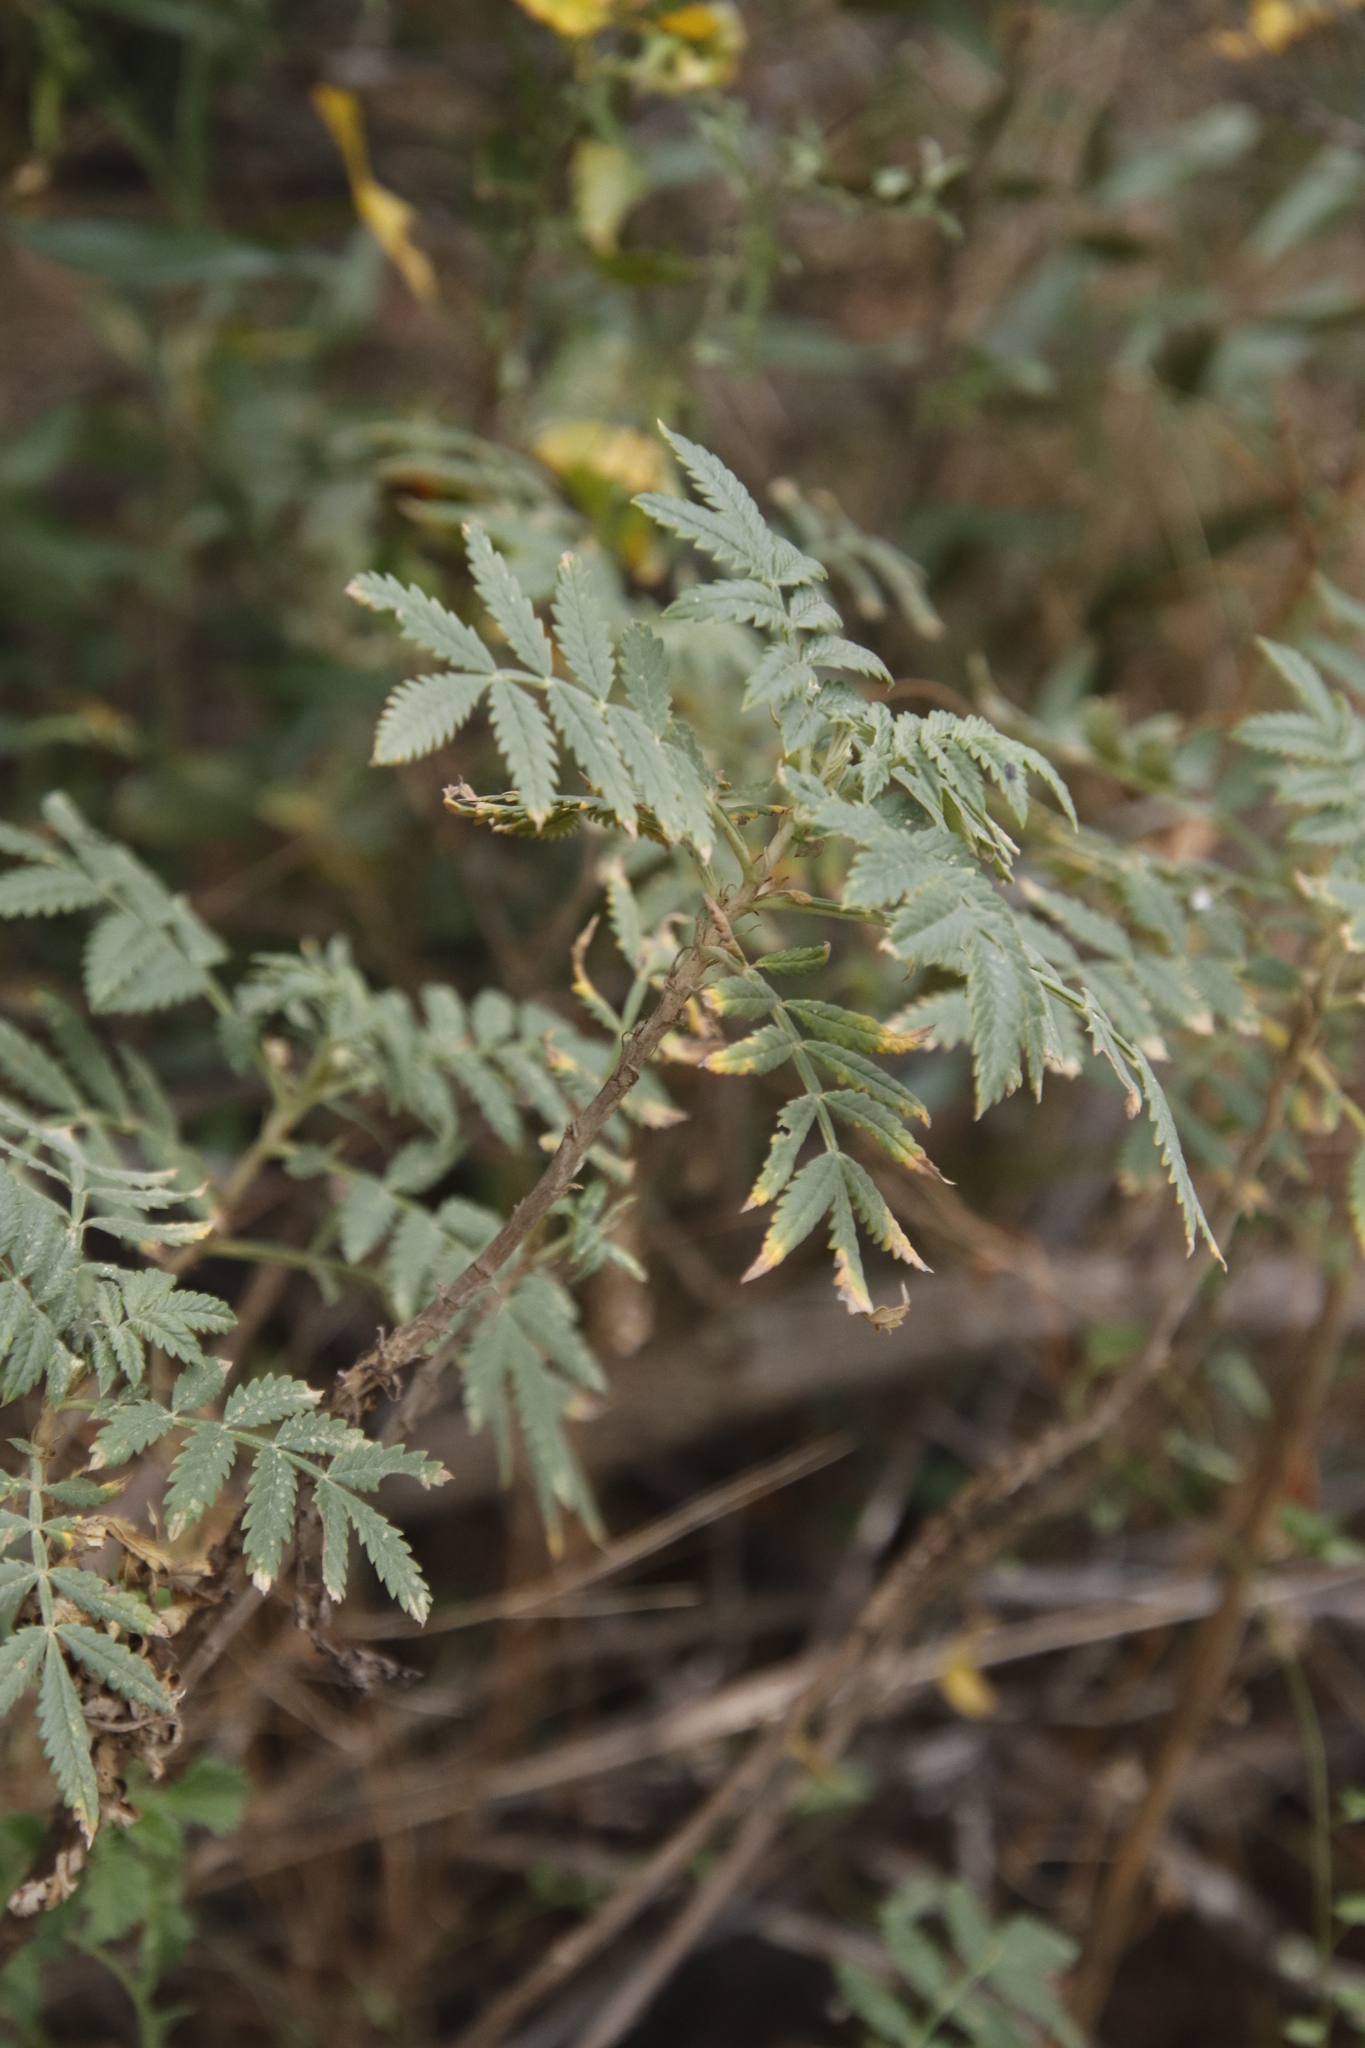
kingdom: Plantae
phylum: Tracheophyta
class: Magnoliopsida
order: Geraniales
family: Melianthaceae
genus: Melianthus
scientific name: Melianthus comosus
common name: Touch-me-not
